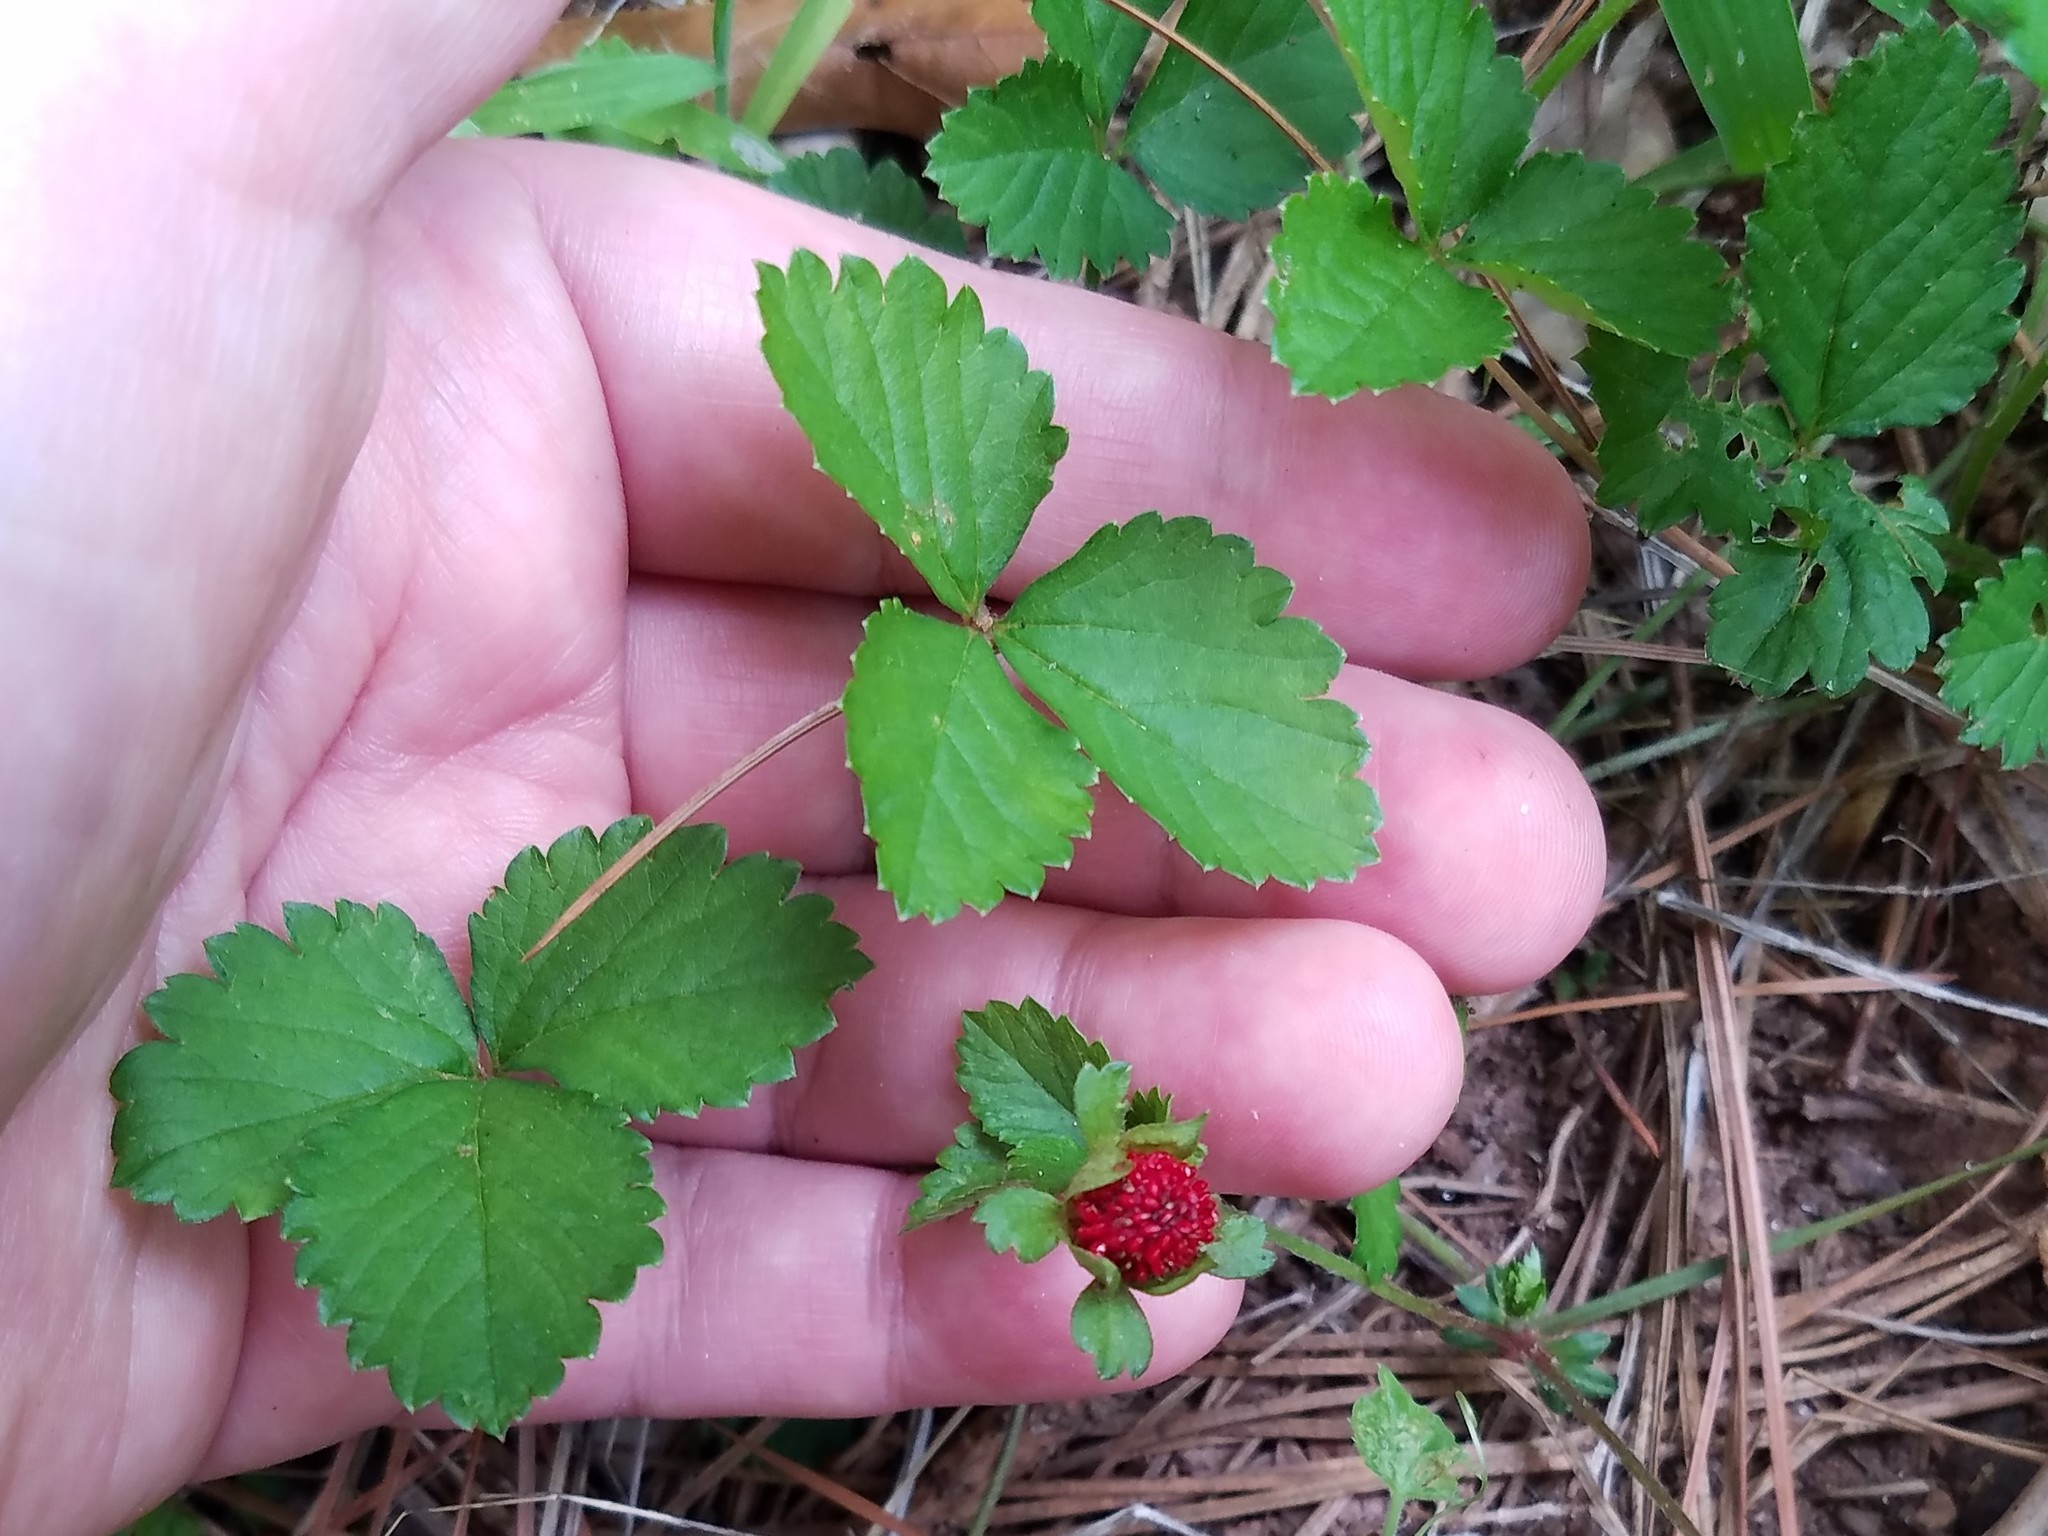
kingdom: Plantae
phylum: Tracheophyta
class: Magnoliopsida
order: Rosales
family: Rosaceae
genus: Potentilla
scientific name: Potentilla indica
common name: Yellow-flowered strawberry
